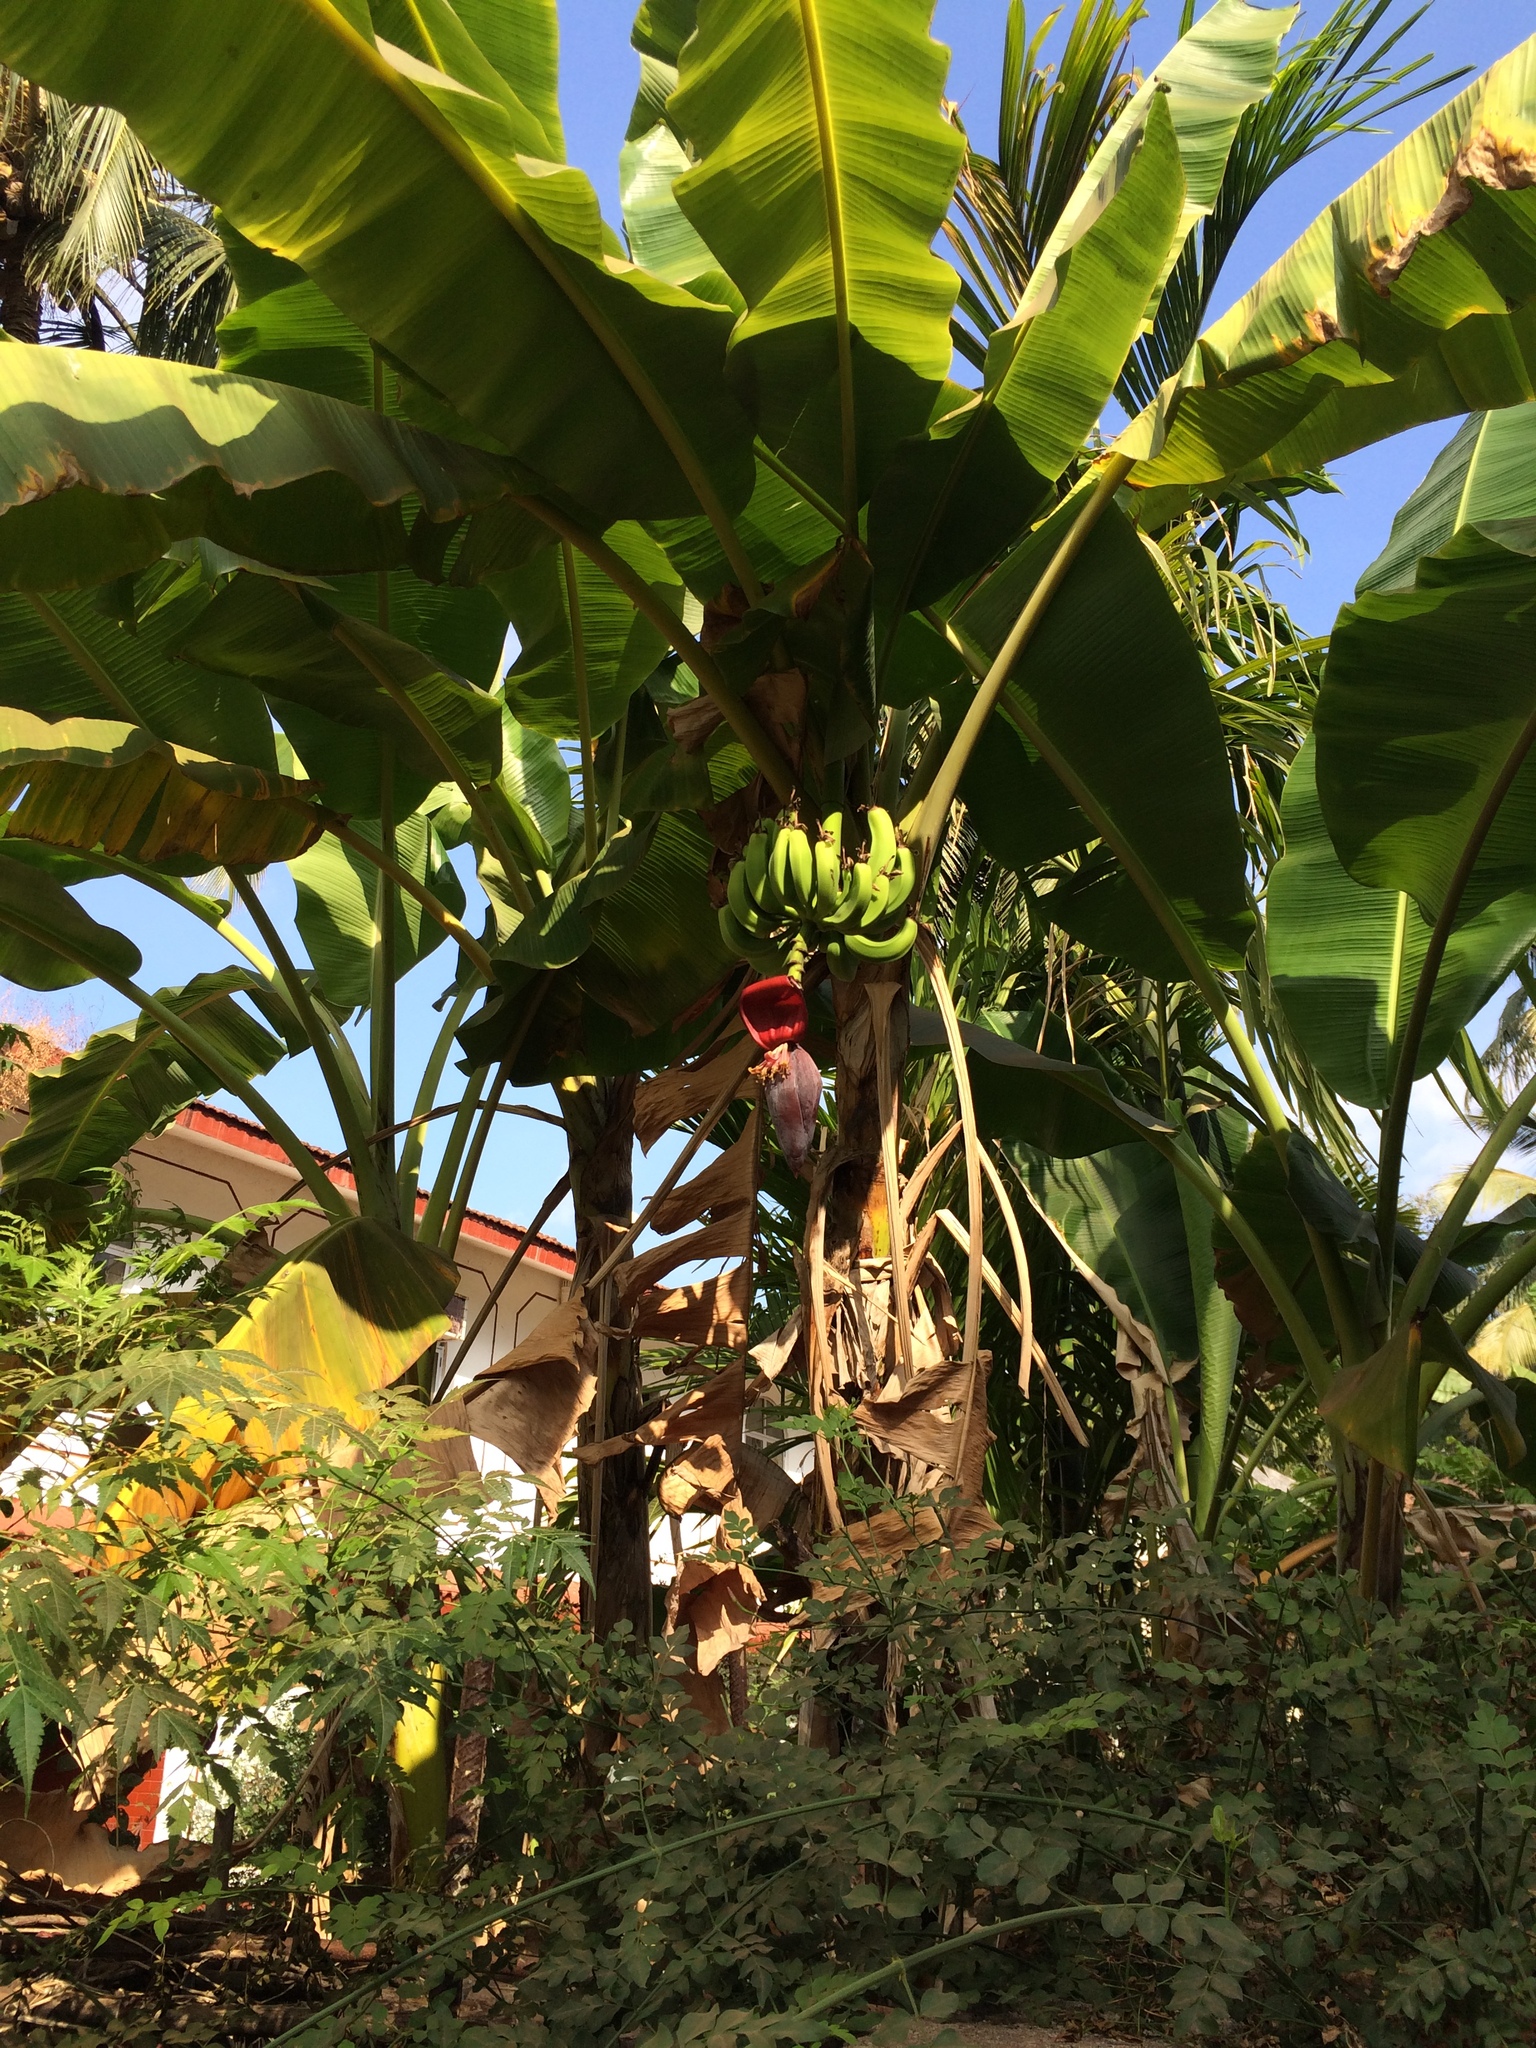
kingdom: Plantae
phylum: Tracheophyta
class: Liliopsida
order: Zingiberales
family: Musaceae
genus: Musa
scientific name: Musa paradisiaca
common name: French plantain
